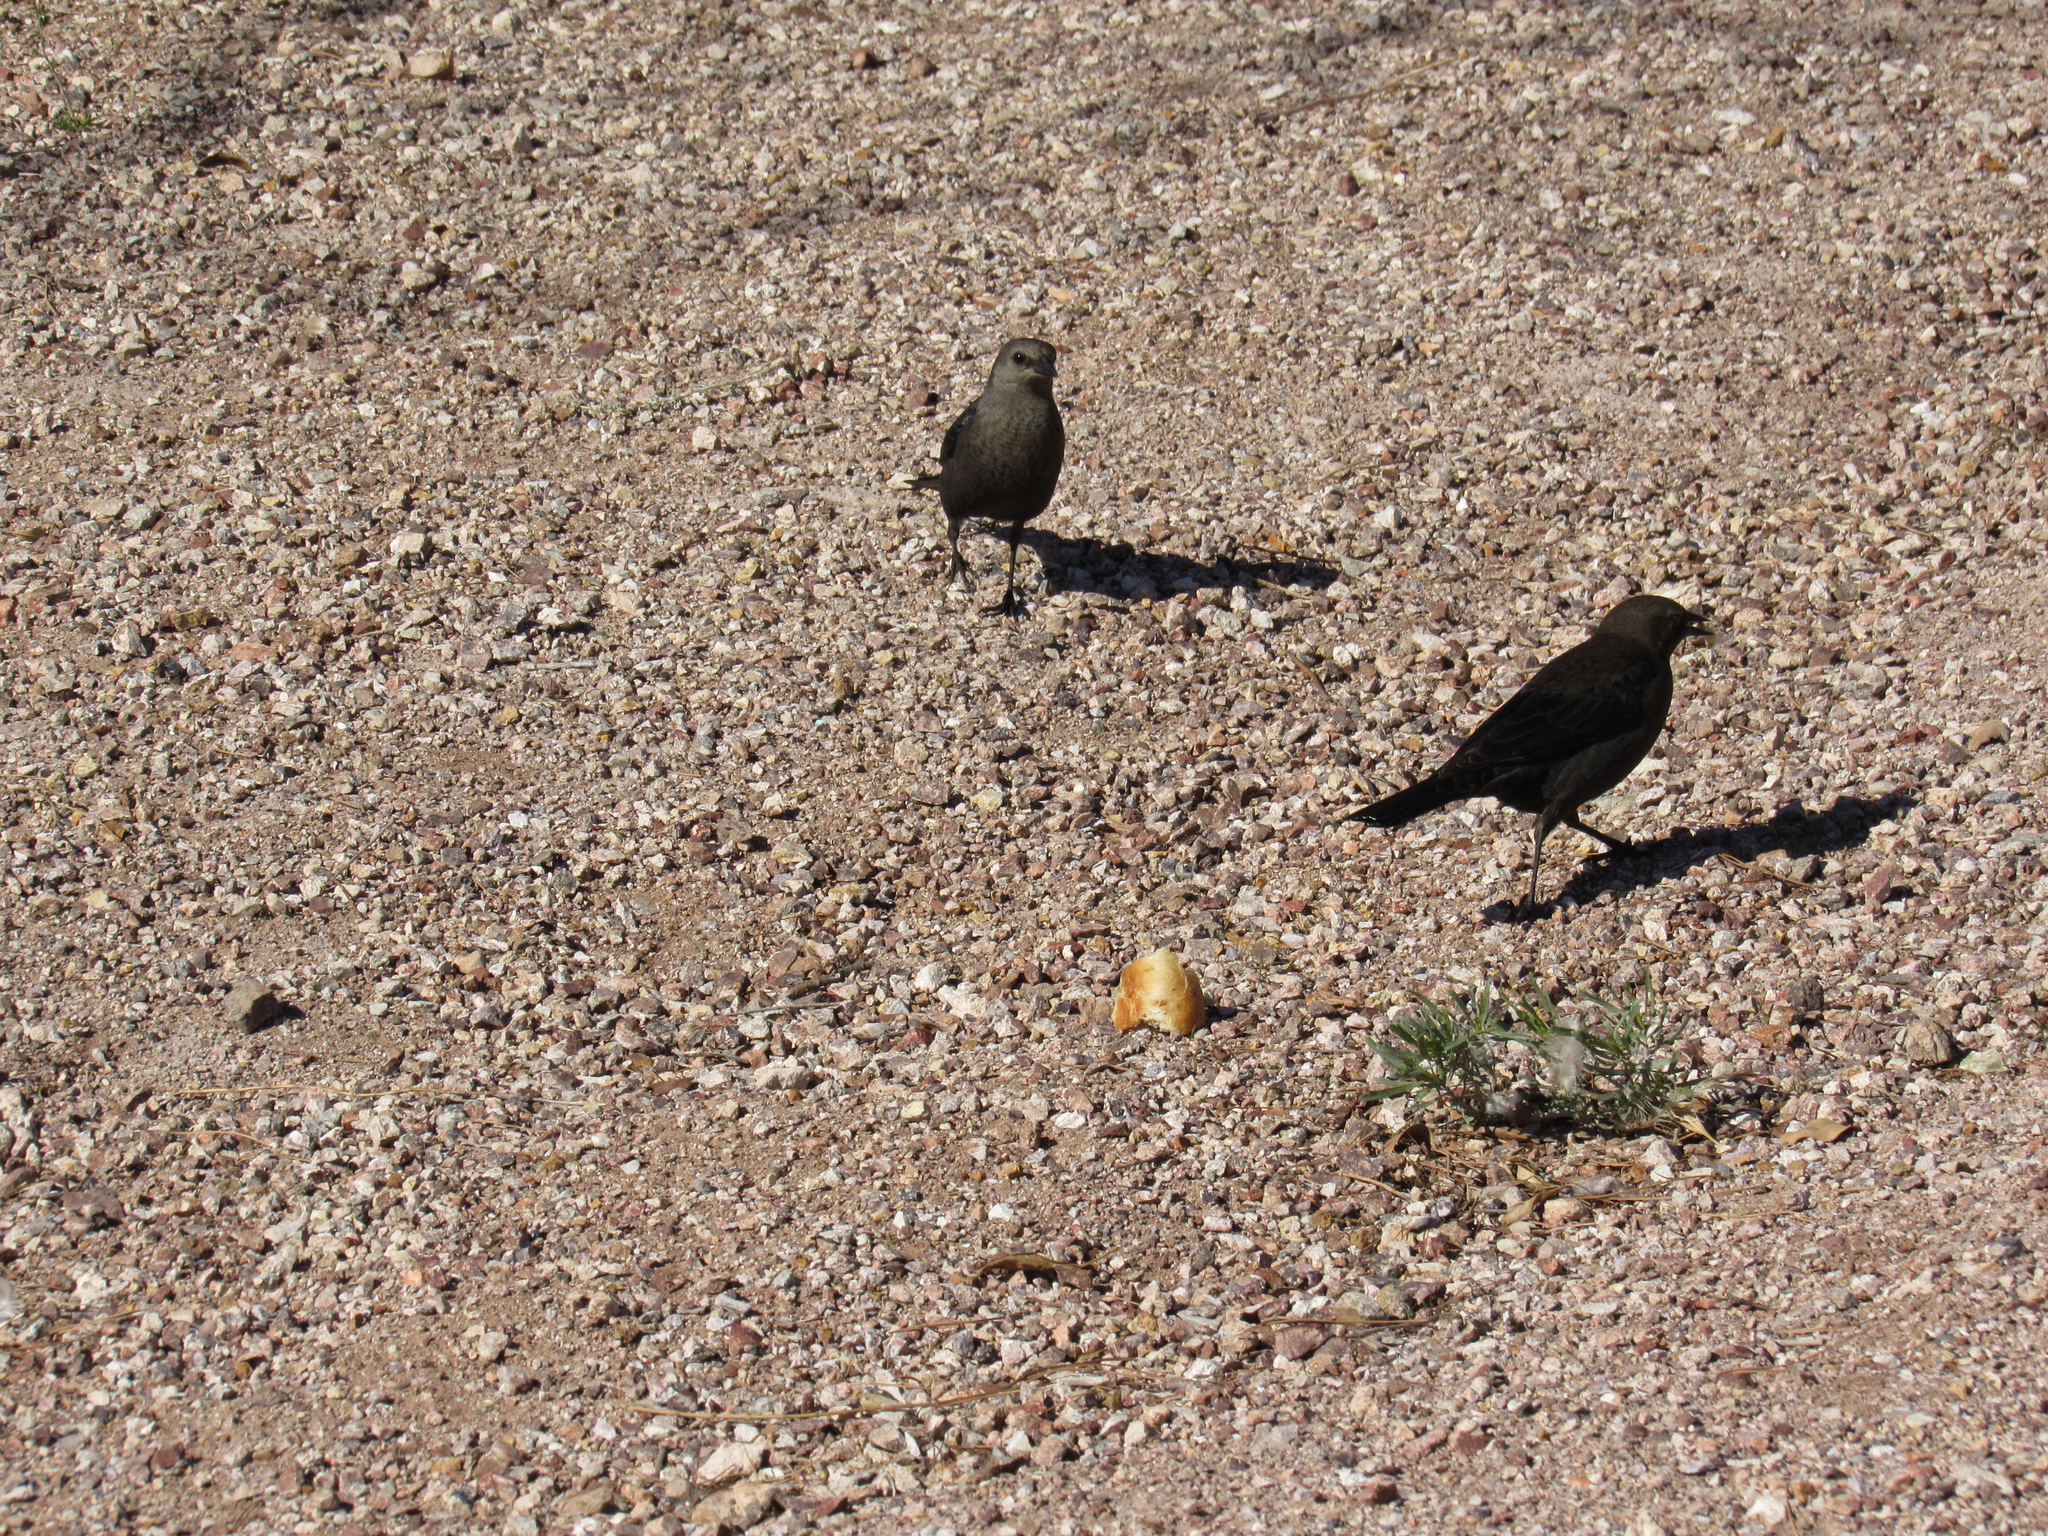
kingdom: Animalia
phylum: Chordata
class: Aves
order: Passeriformes
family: Icteridae
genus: Euphagus
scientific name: Euphagus cyanocephalus
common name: Brewer's blackbird
